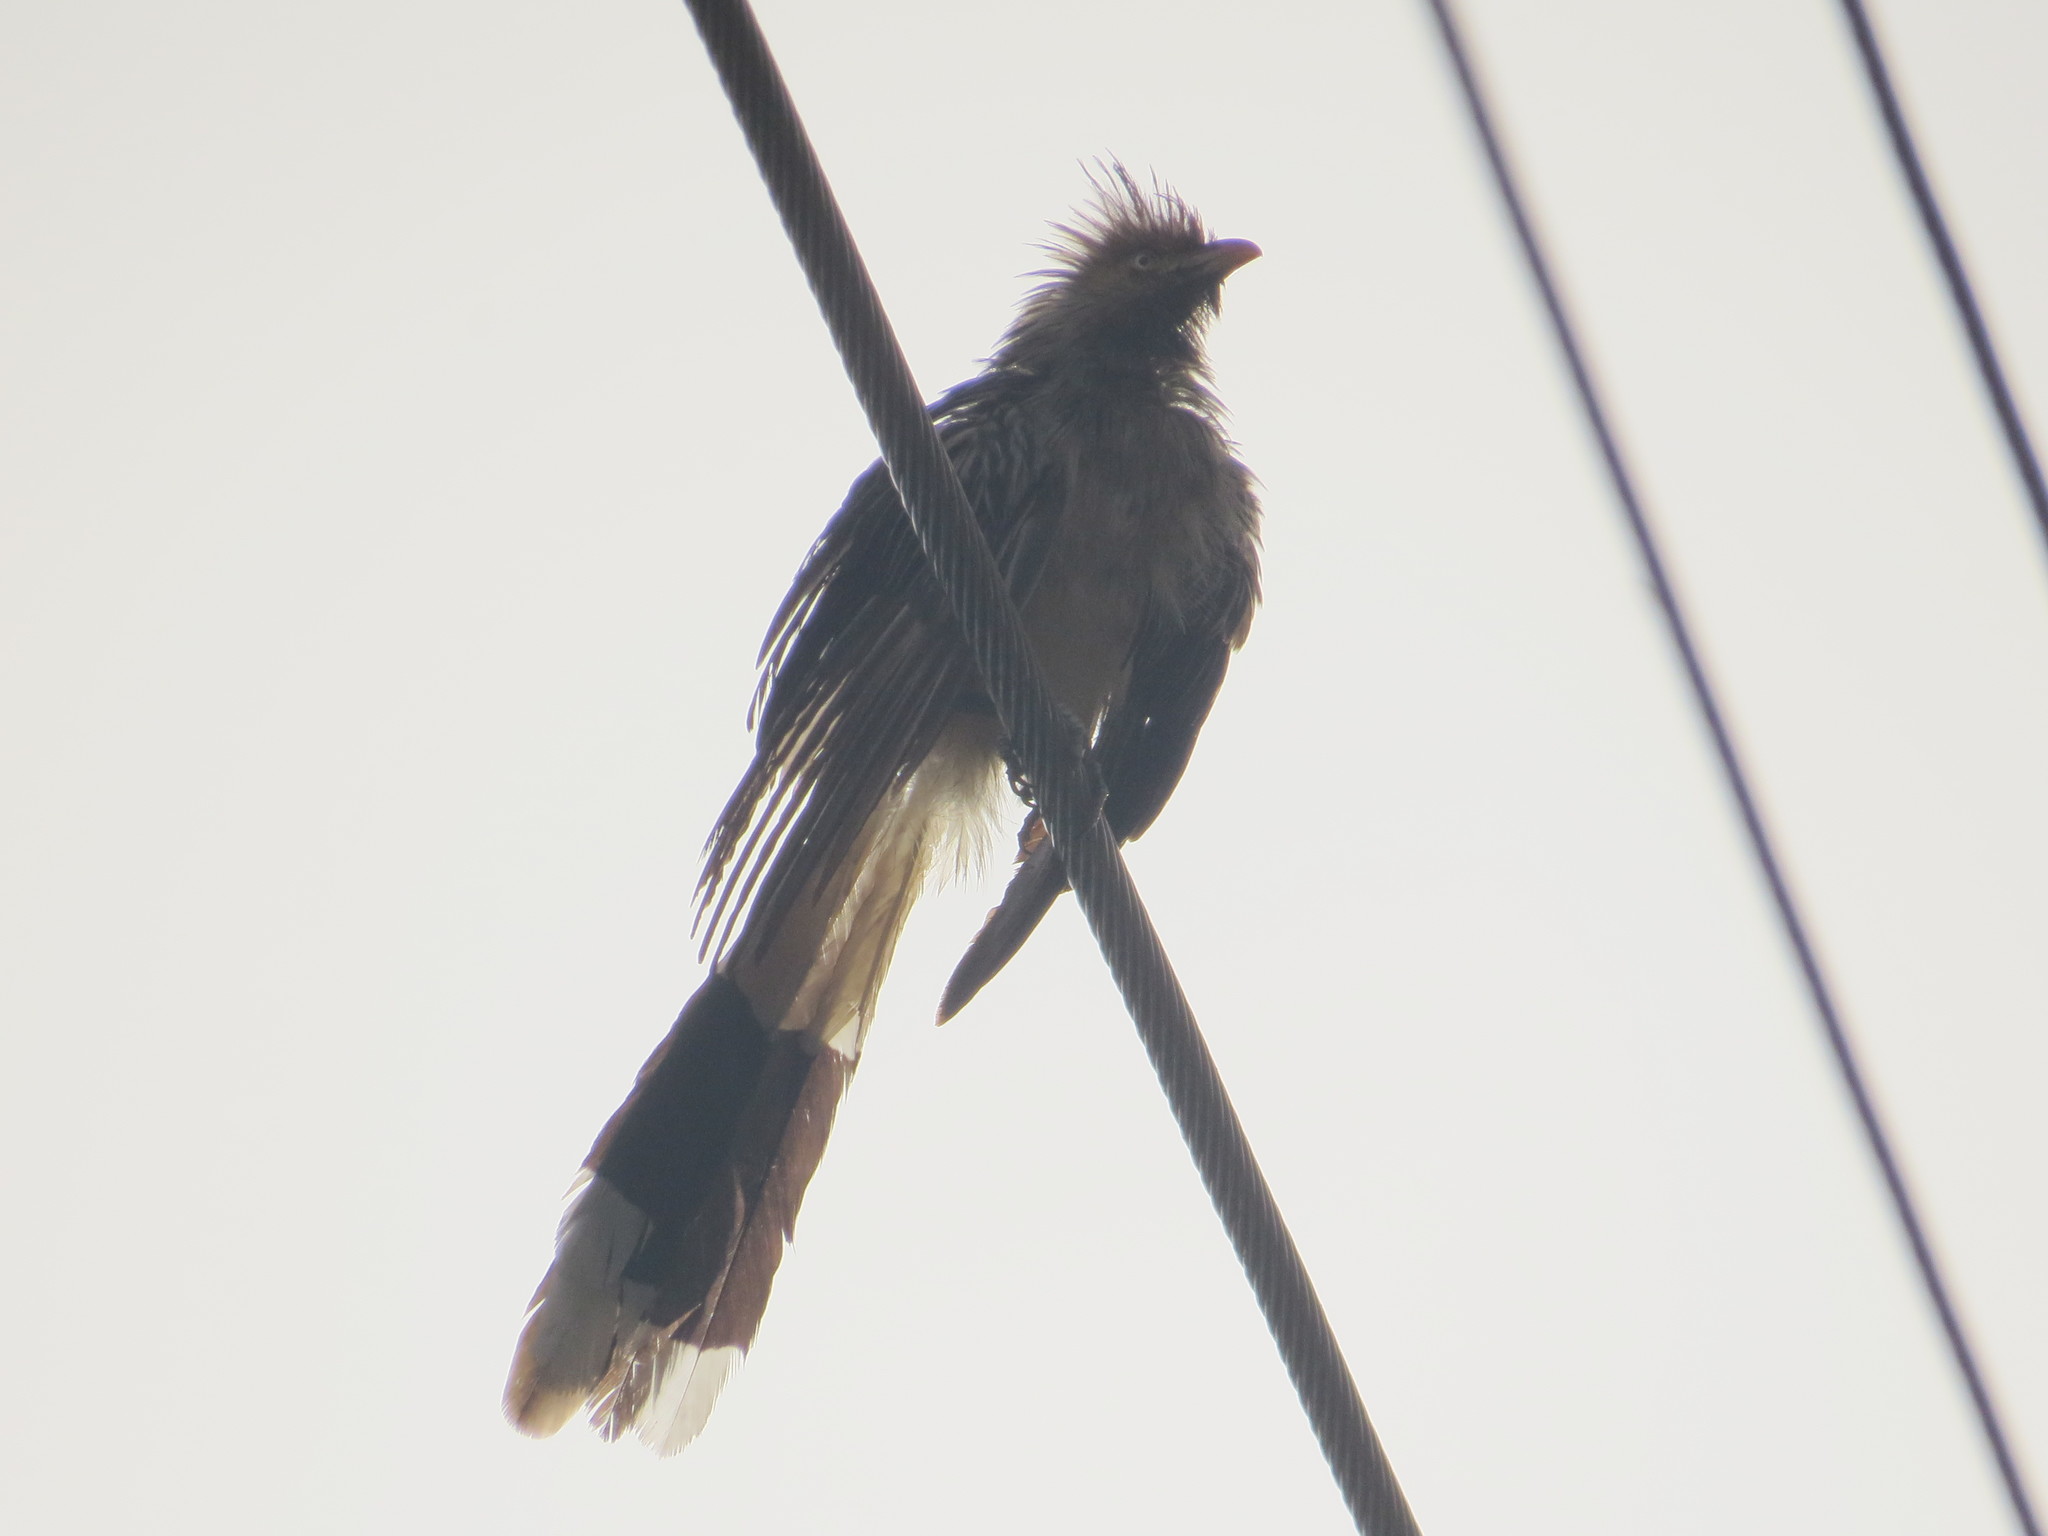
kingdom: Animalia
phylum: Chordata
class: Aves
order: Cuculiformes
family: Cuculidae
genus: Guira
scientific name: Guira guira
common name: Guira cuckoo
